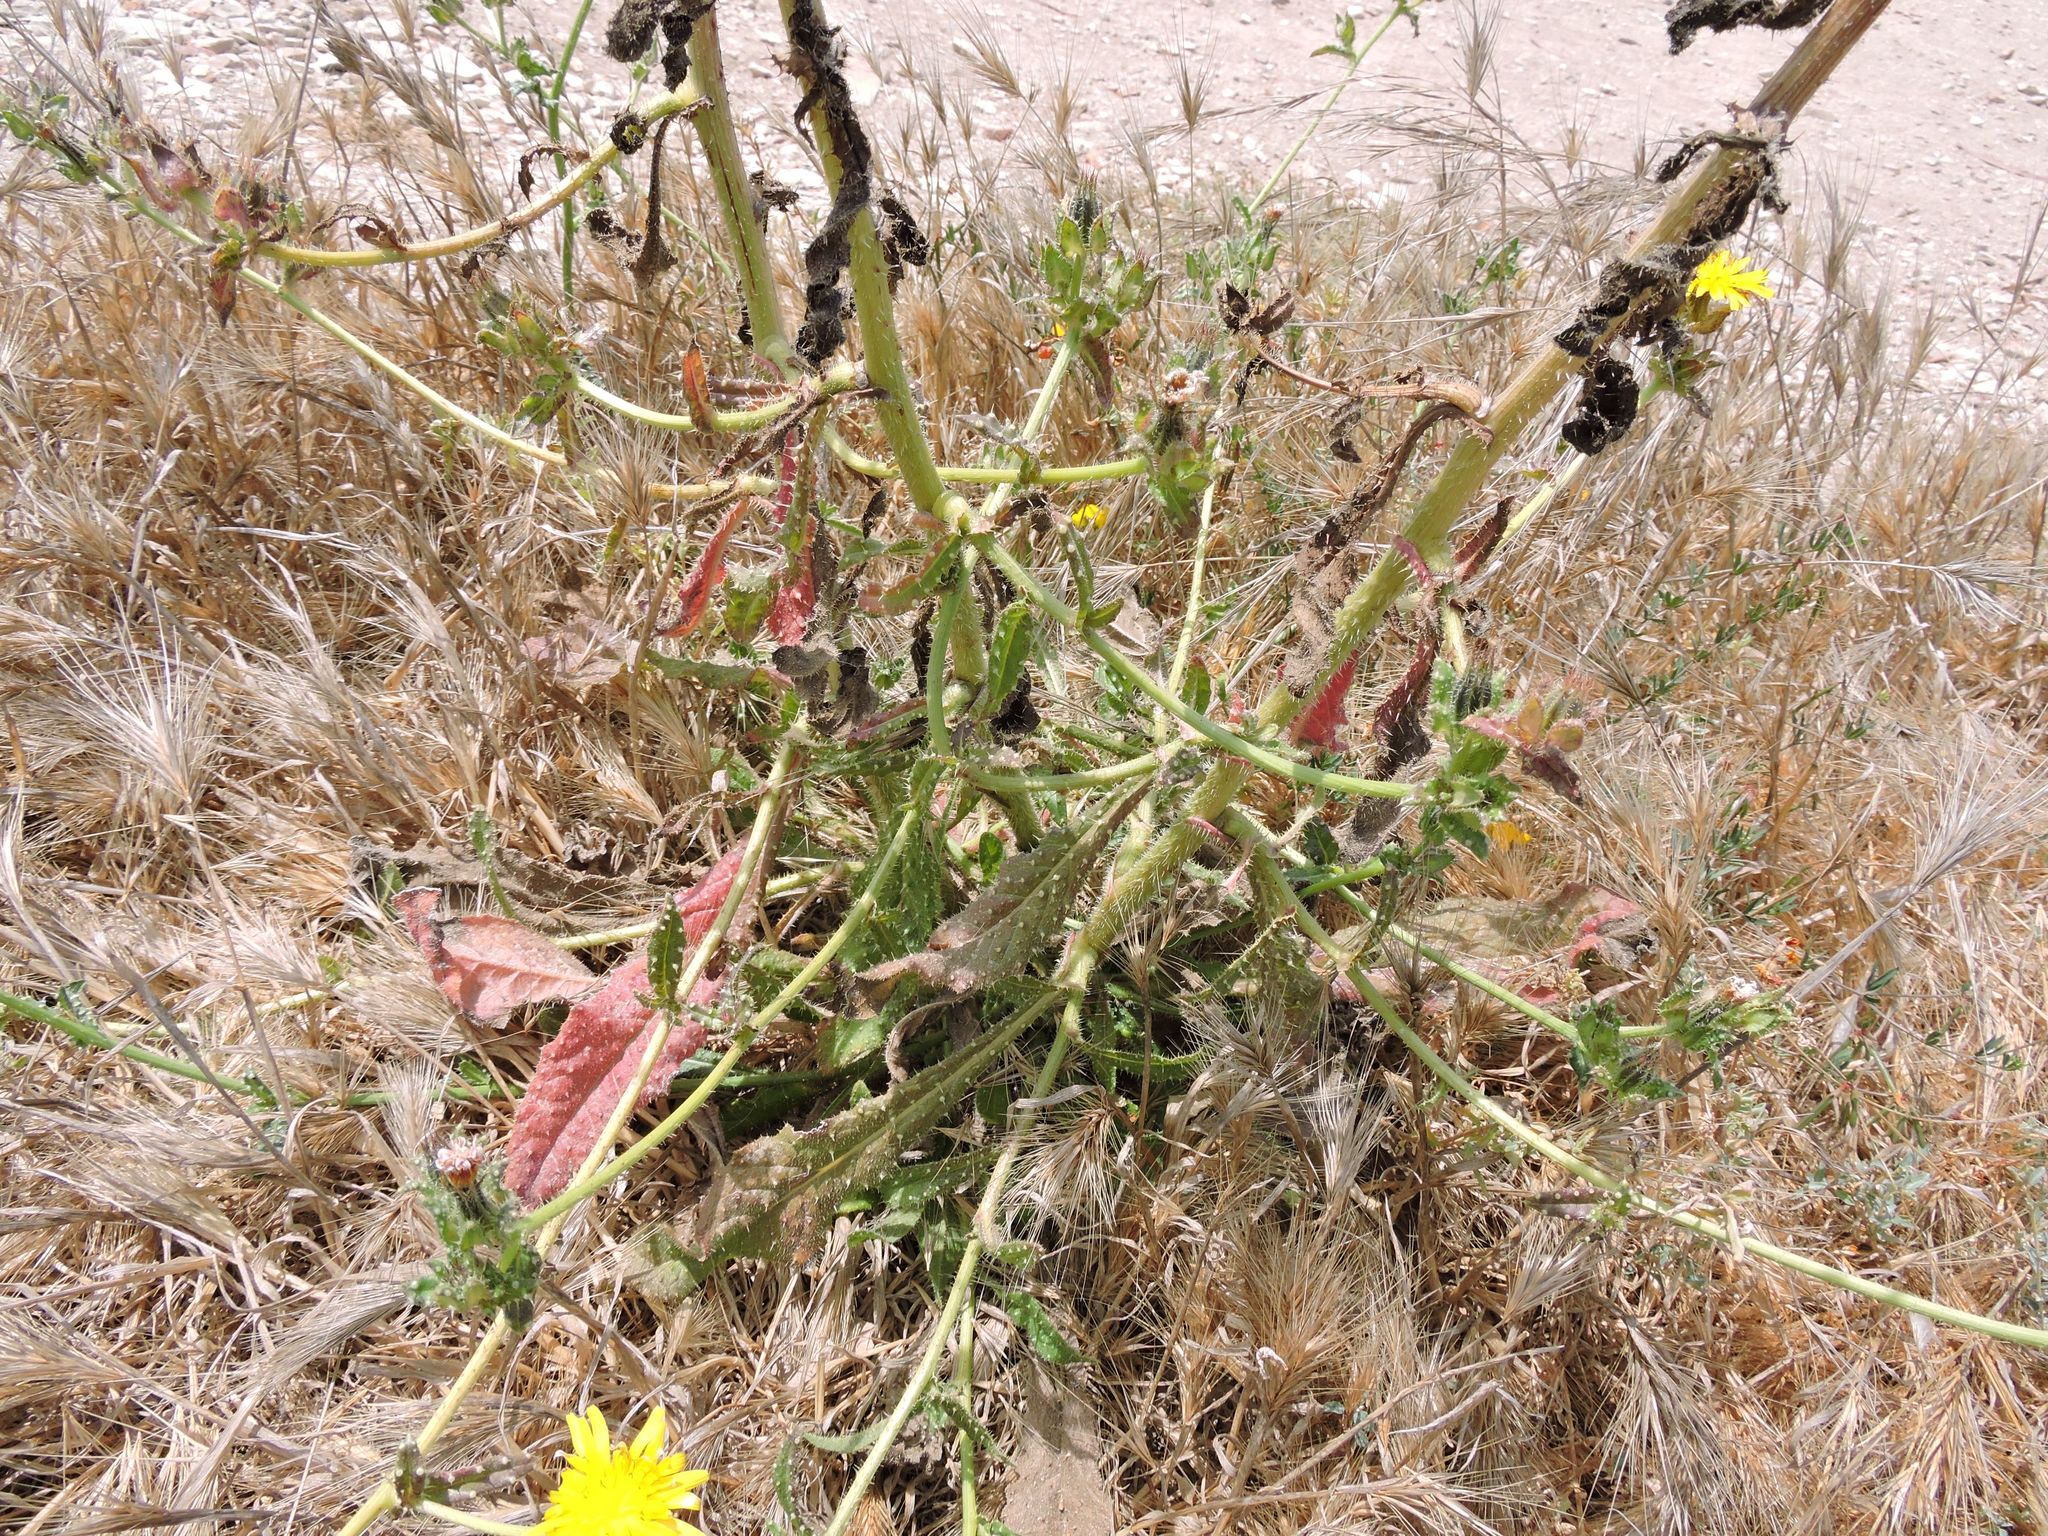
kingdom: Plantae
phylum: Tracheophyta
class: Magnoliopsida
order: Asterales
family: Asteraceae
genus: Helminthotheca
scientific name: Helminthotheca echioides
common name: Ox-tongue
